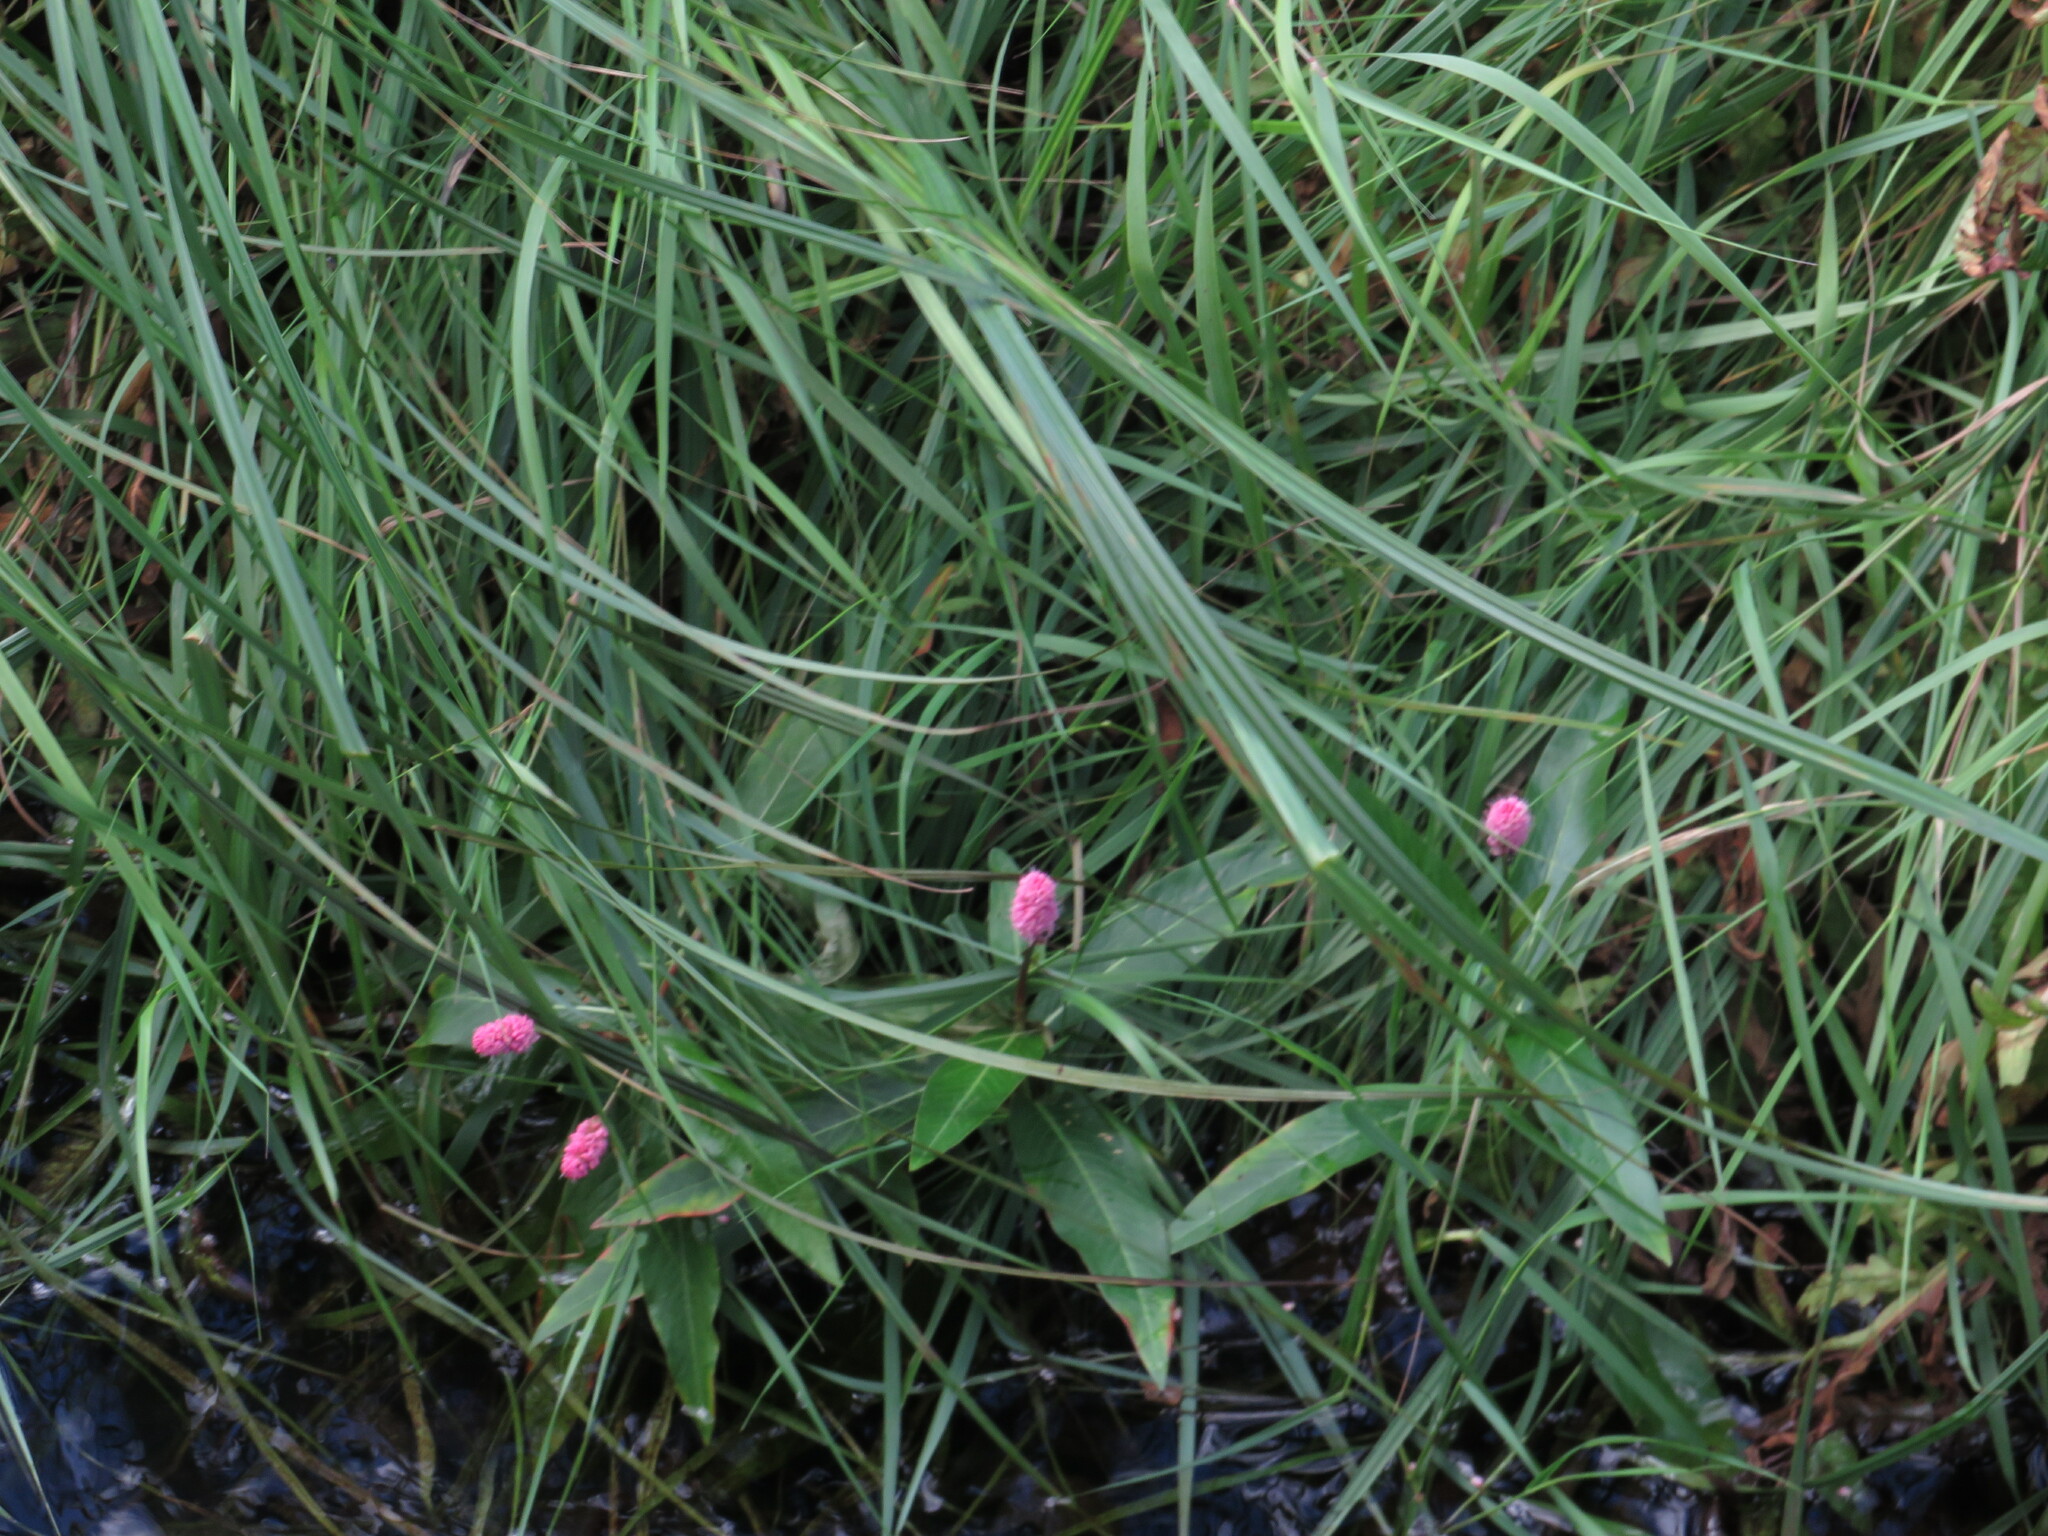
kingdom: Plantae
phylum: Tracheophyta
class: Magnoliopsida
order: Caryophyllales
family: Polygonaceae
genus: Persicaria
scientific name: Persicaria amphibia
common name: Amphibious bistort
